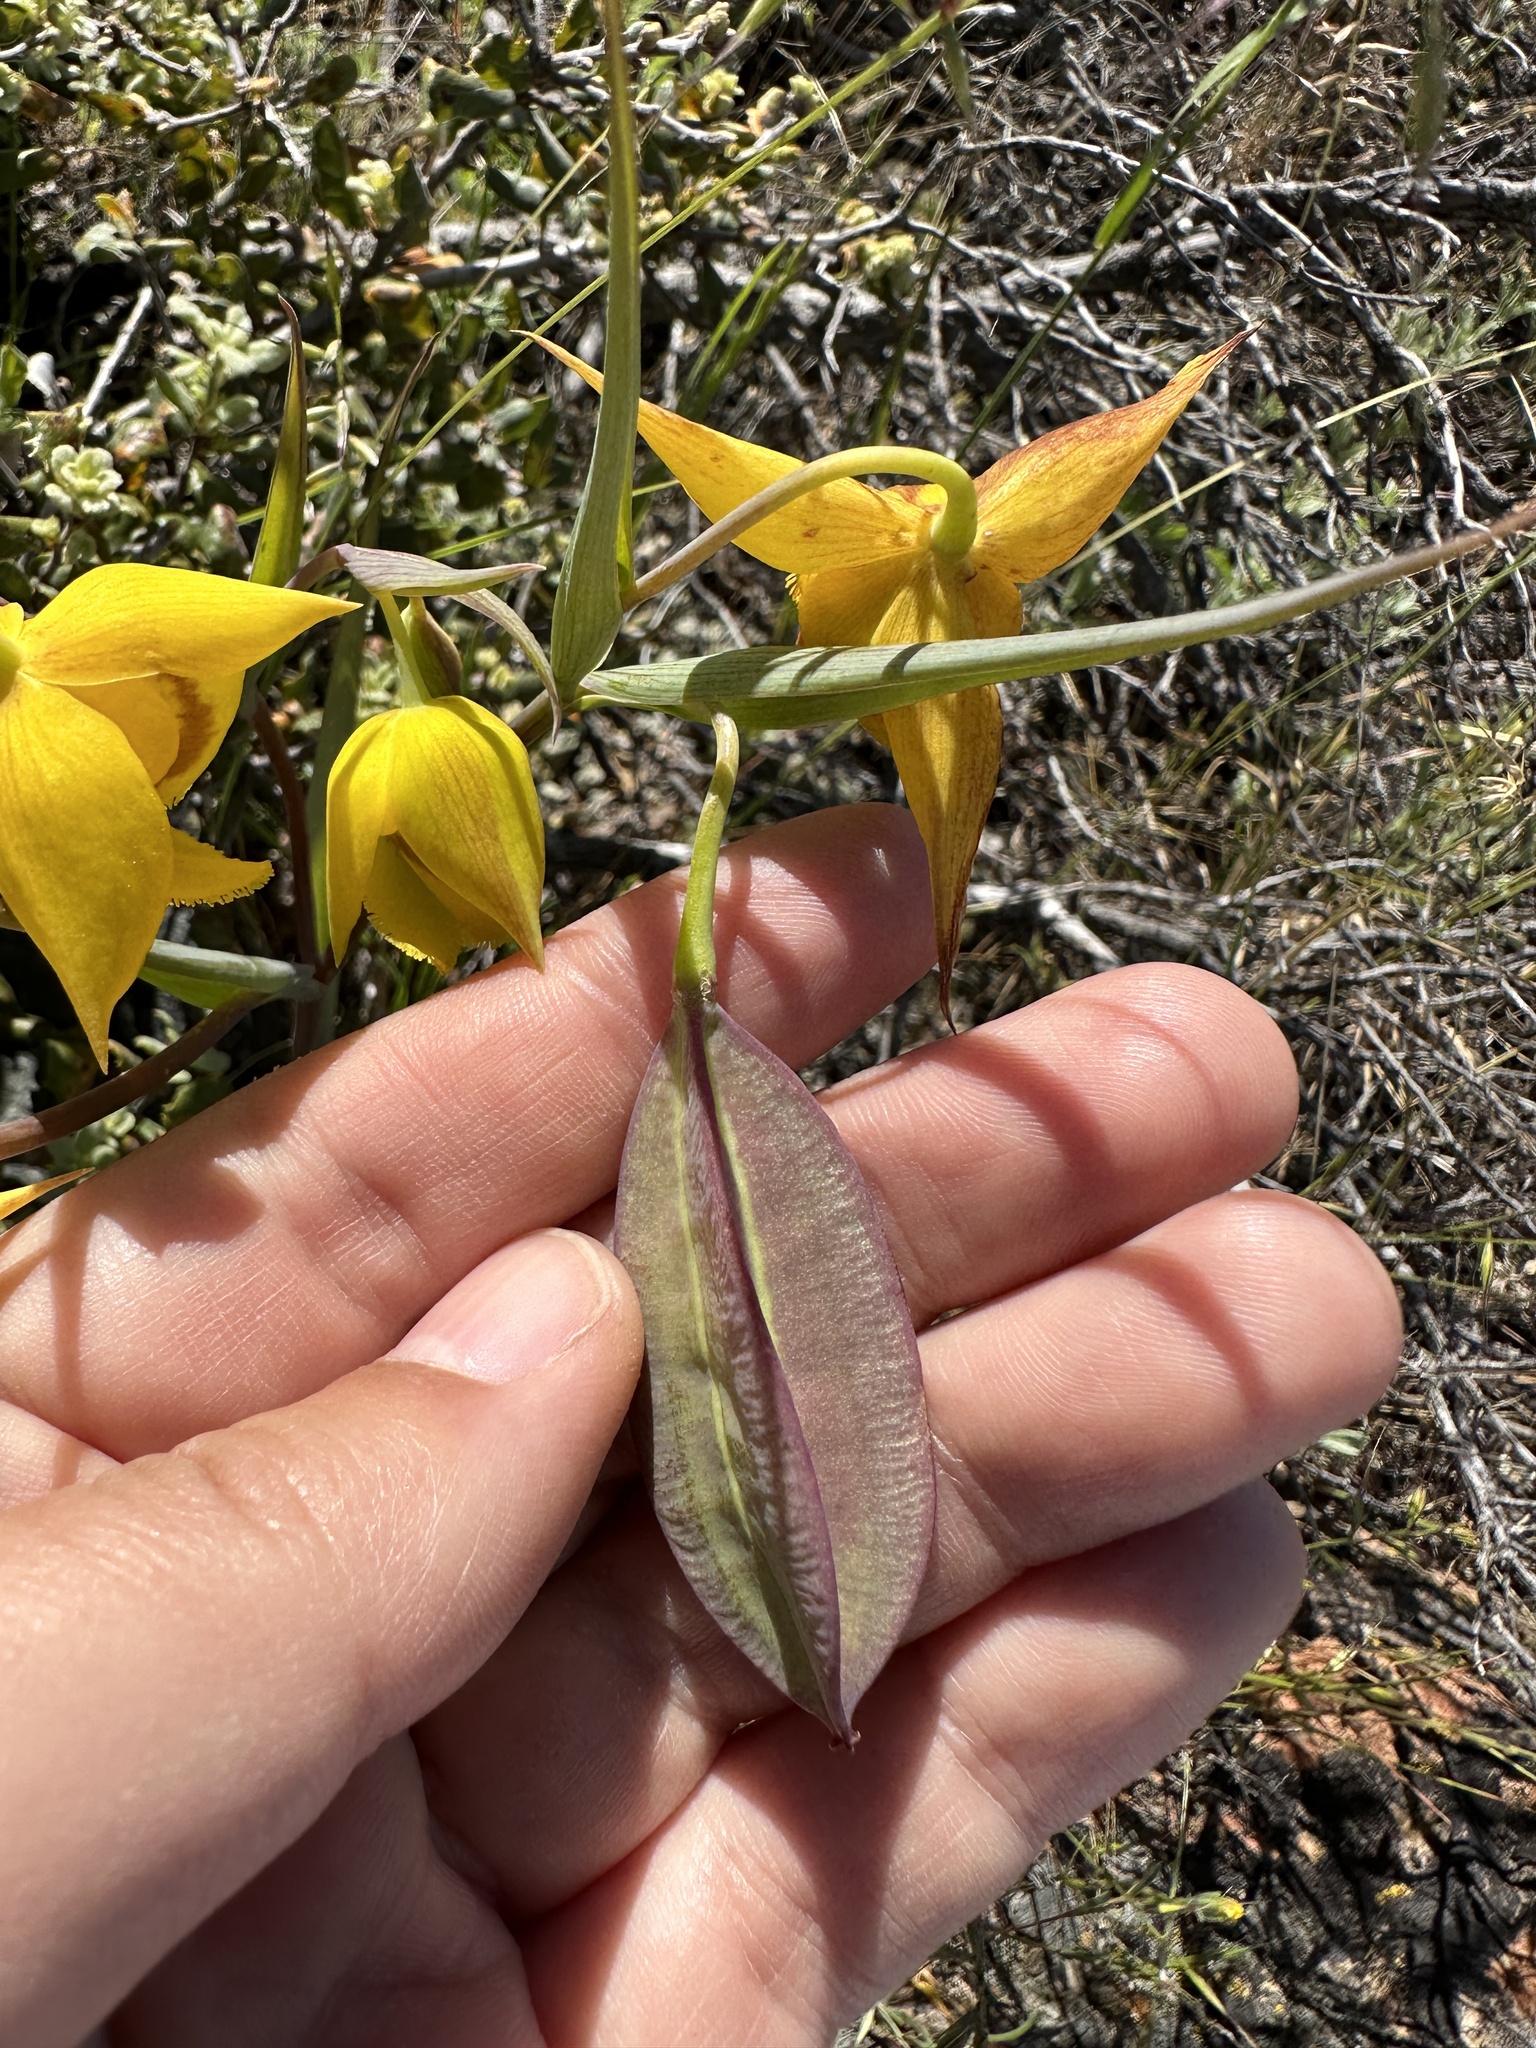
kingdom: Plantae
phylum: Tracheophyta
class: Liliopsida
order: Liliales
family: Liliaceae
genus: Calochortus
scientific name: Calochortus amabilis
